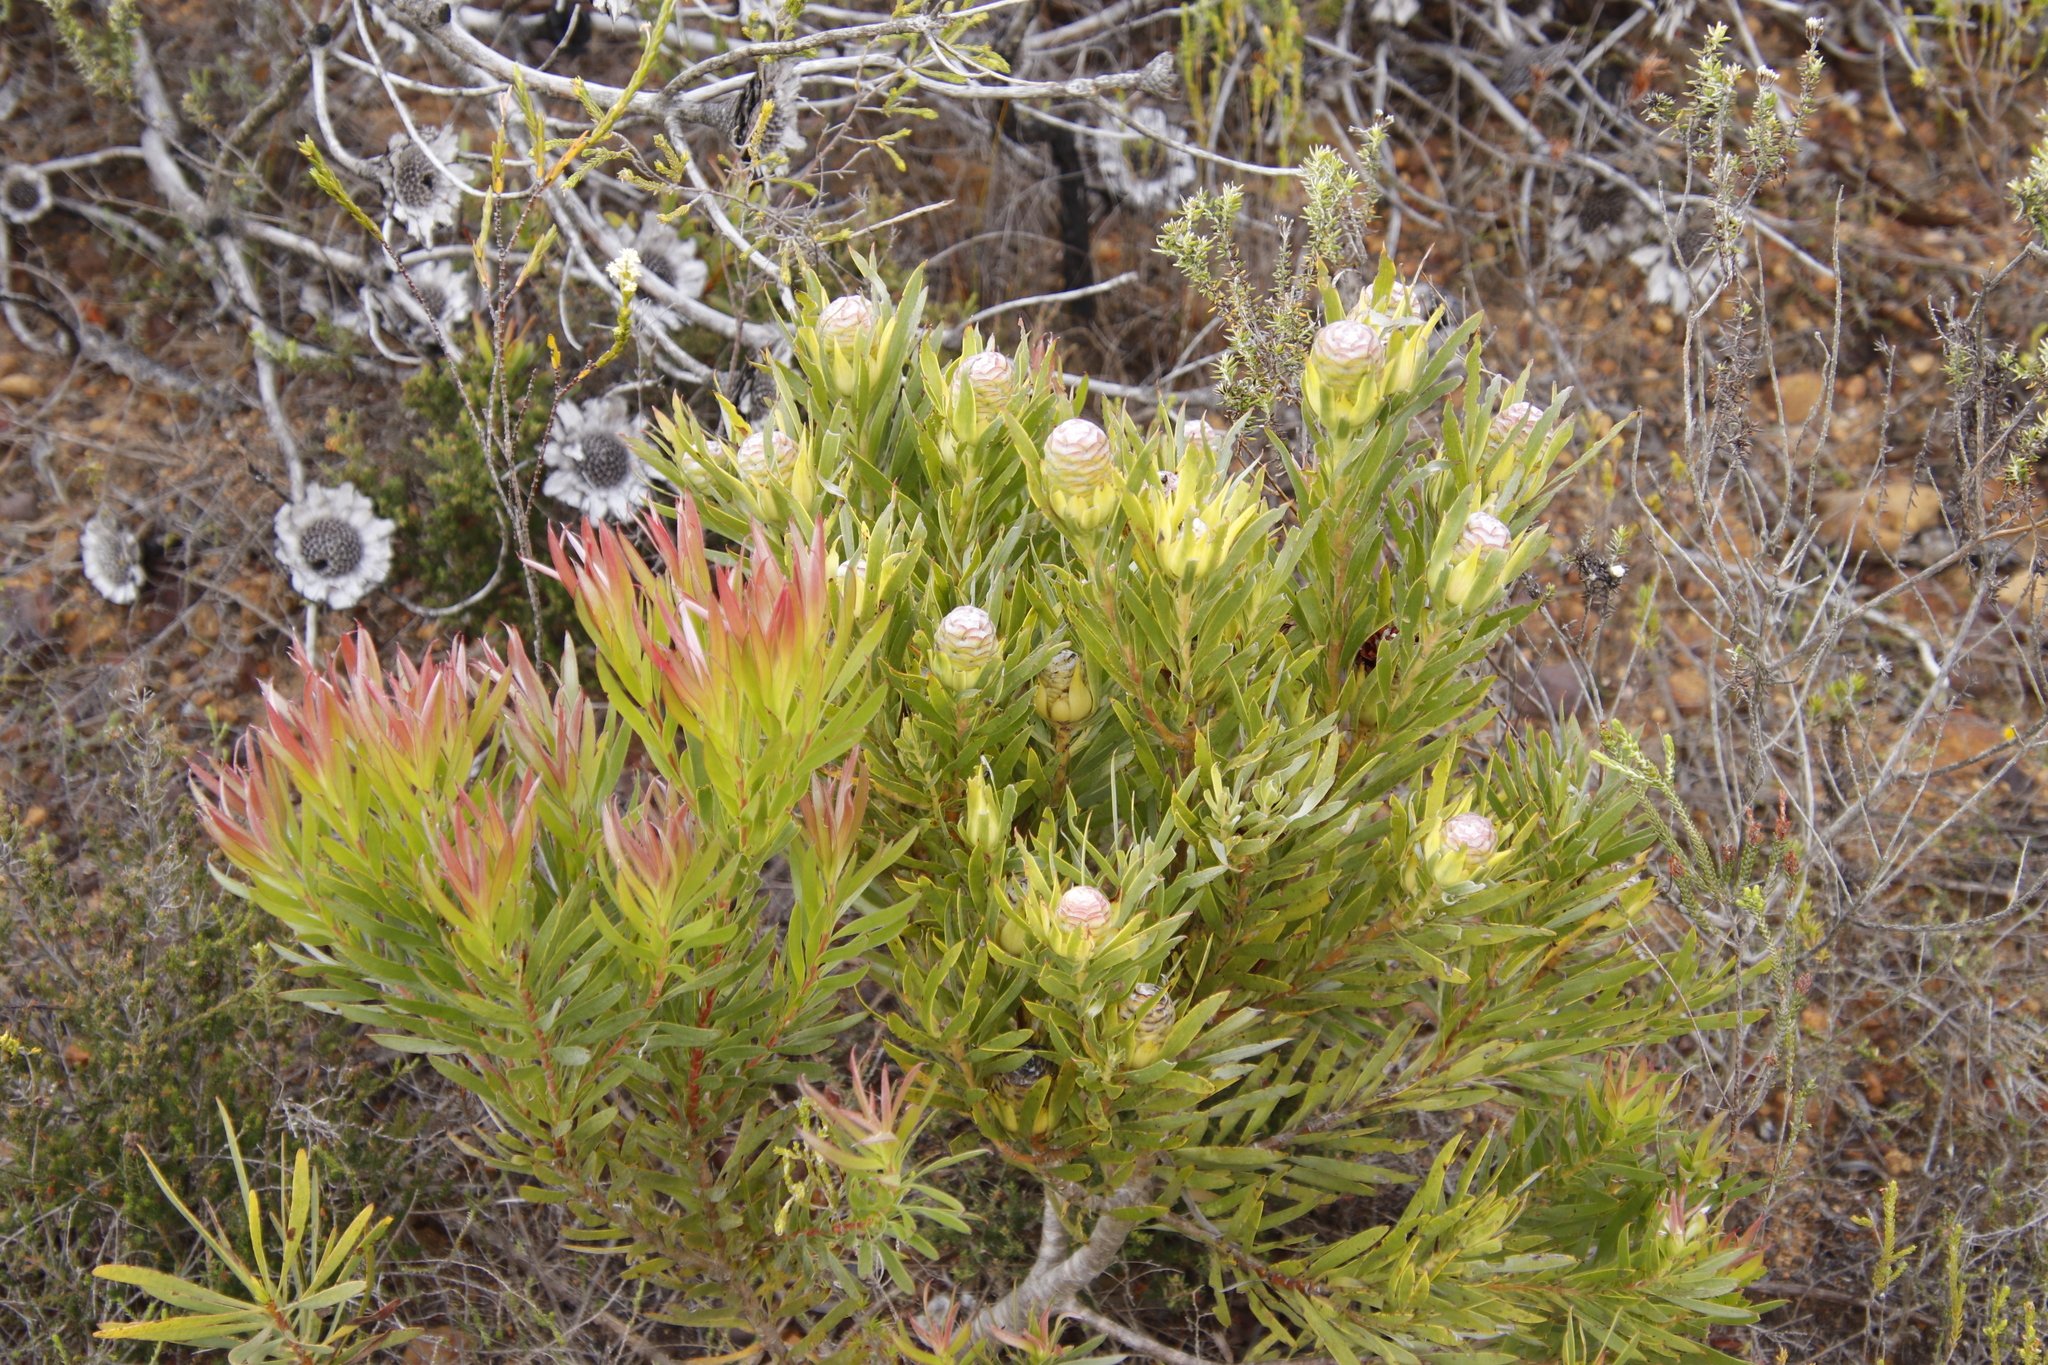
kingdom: Plantae
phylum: Tracheophyta
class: Magnoliopsida
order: Proteales
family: Proteaceae
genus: Leucadendron
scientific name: Leucadendron xanthoconus
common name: Sickle-leaf conebush
